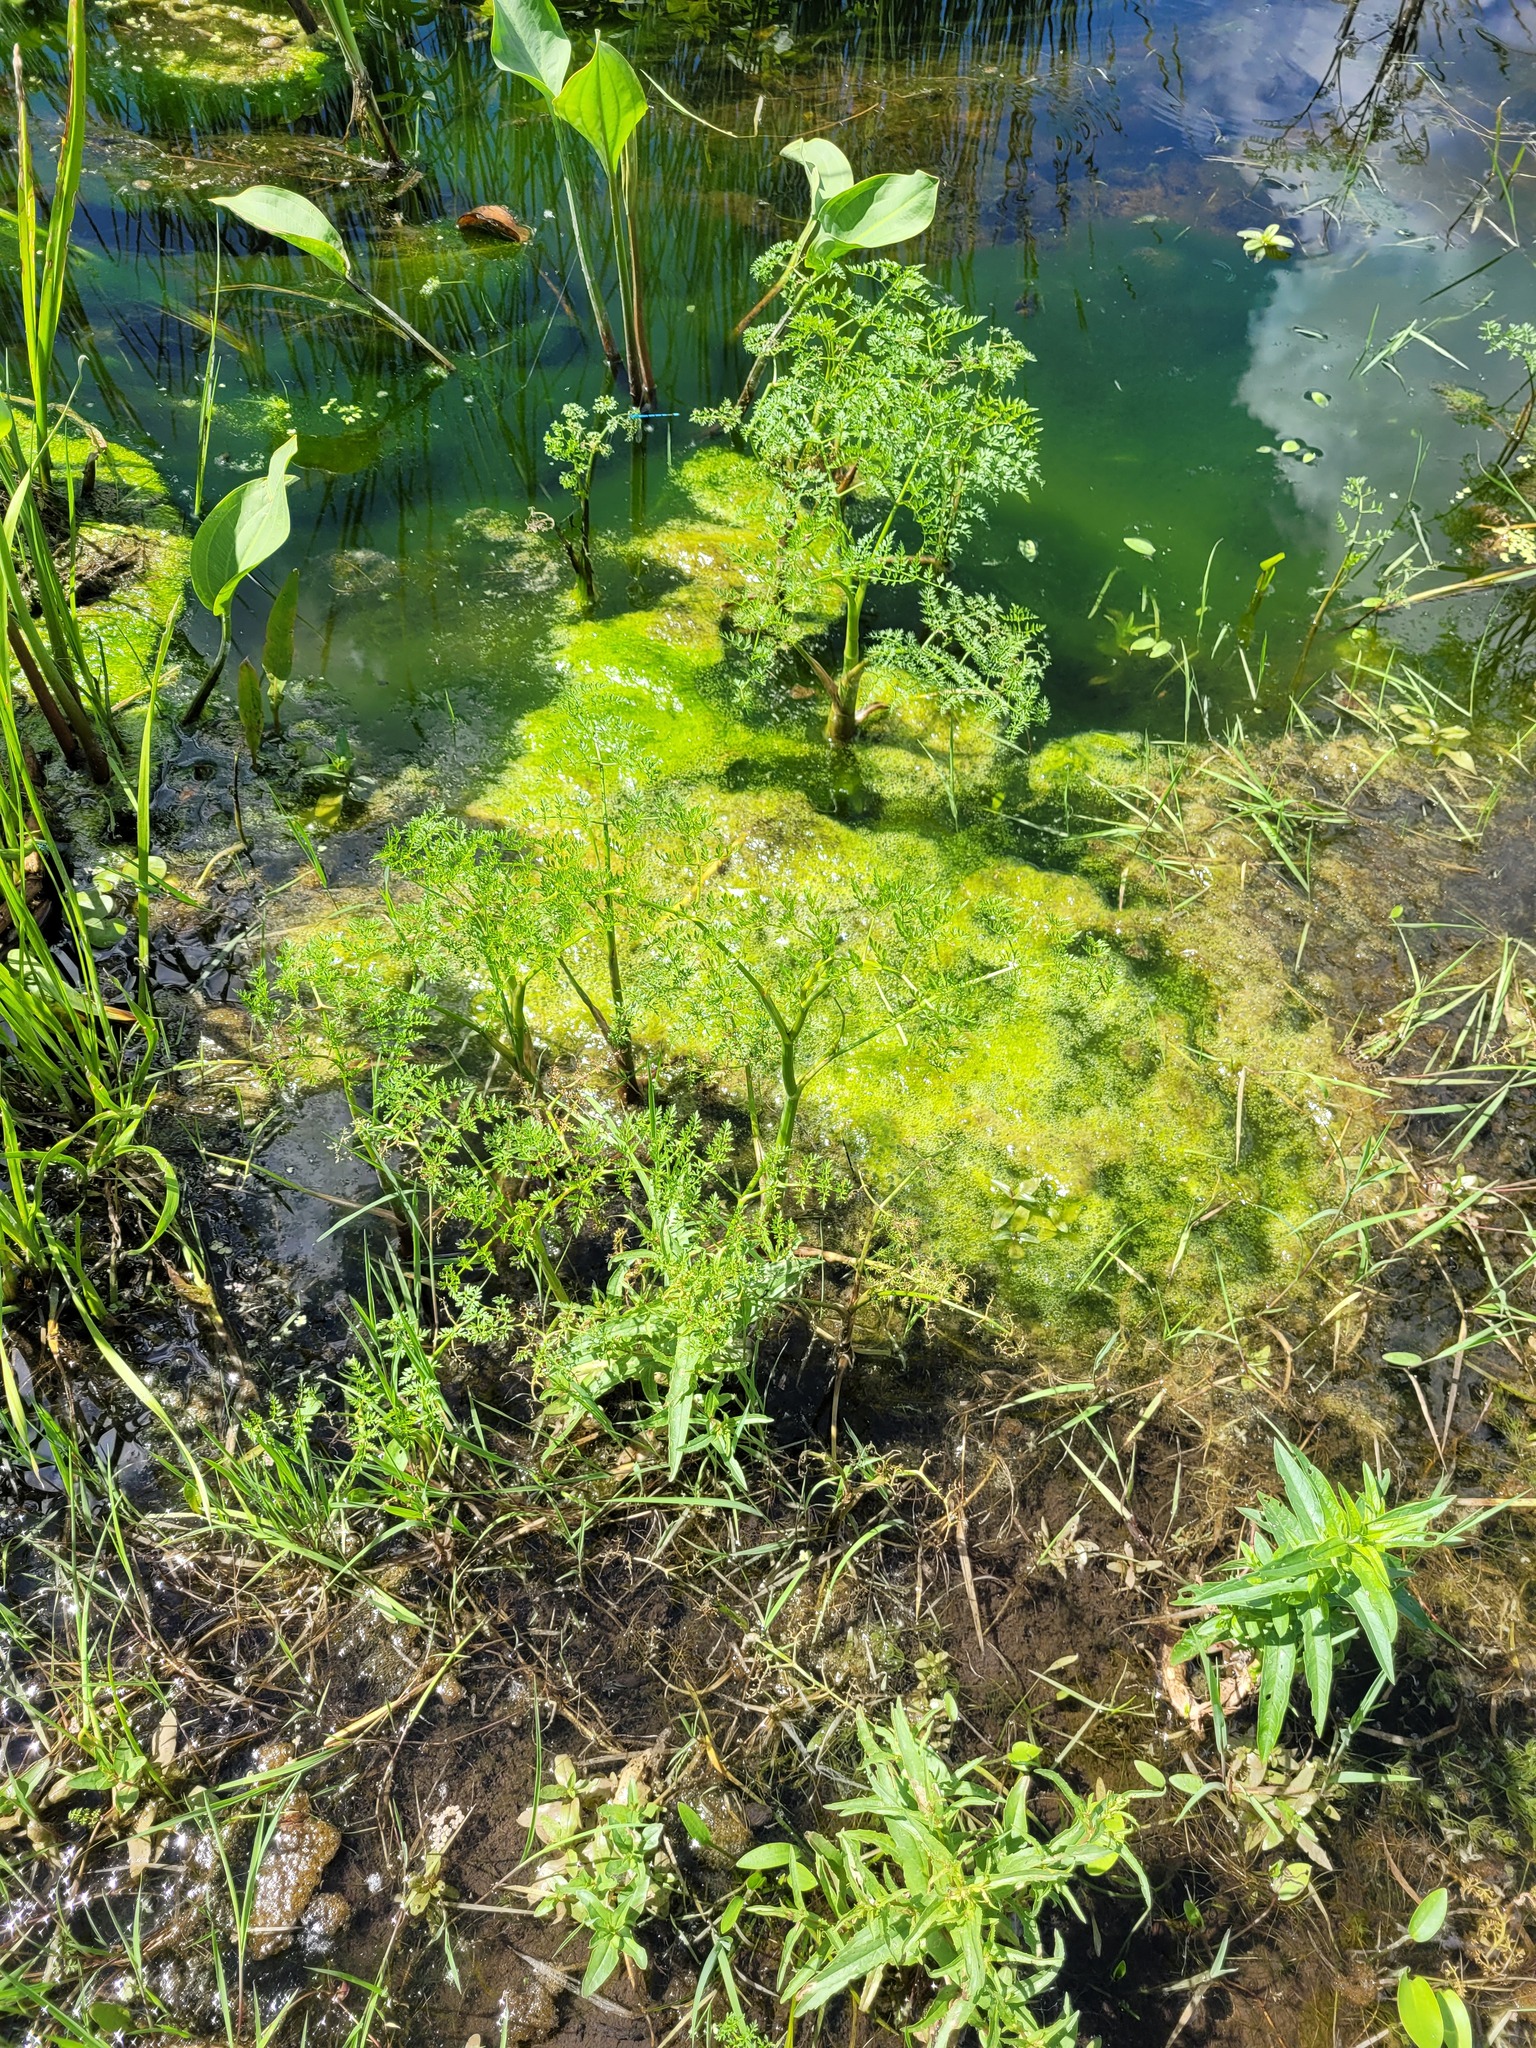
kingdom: Plantae
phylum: Tracheophyta
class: Magnoliopsida
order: Apiales
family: Apiaceae
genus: Oenanthe
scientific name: Oenanthe aquatica
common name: Fine-leaved water-dropwort
